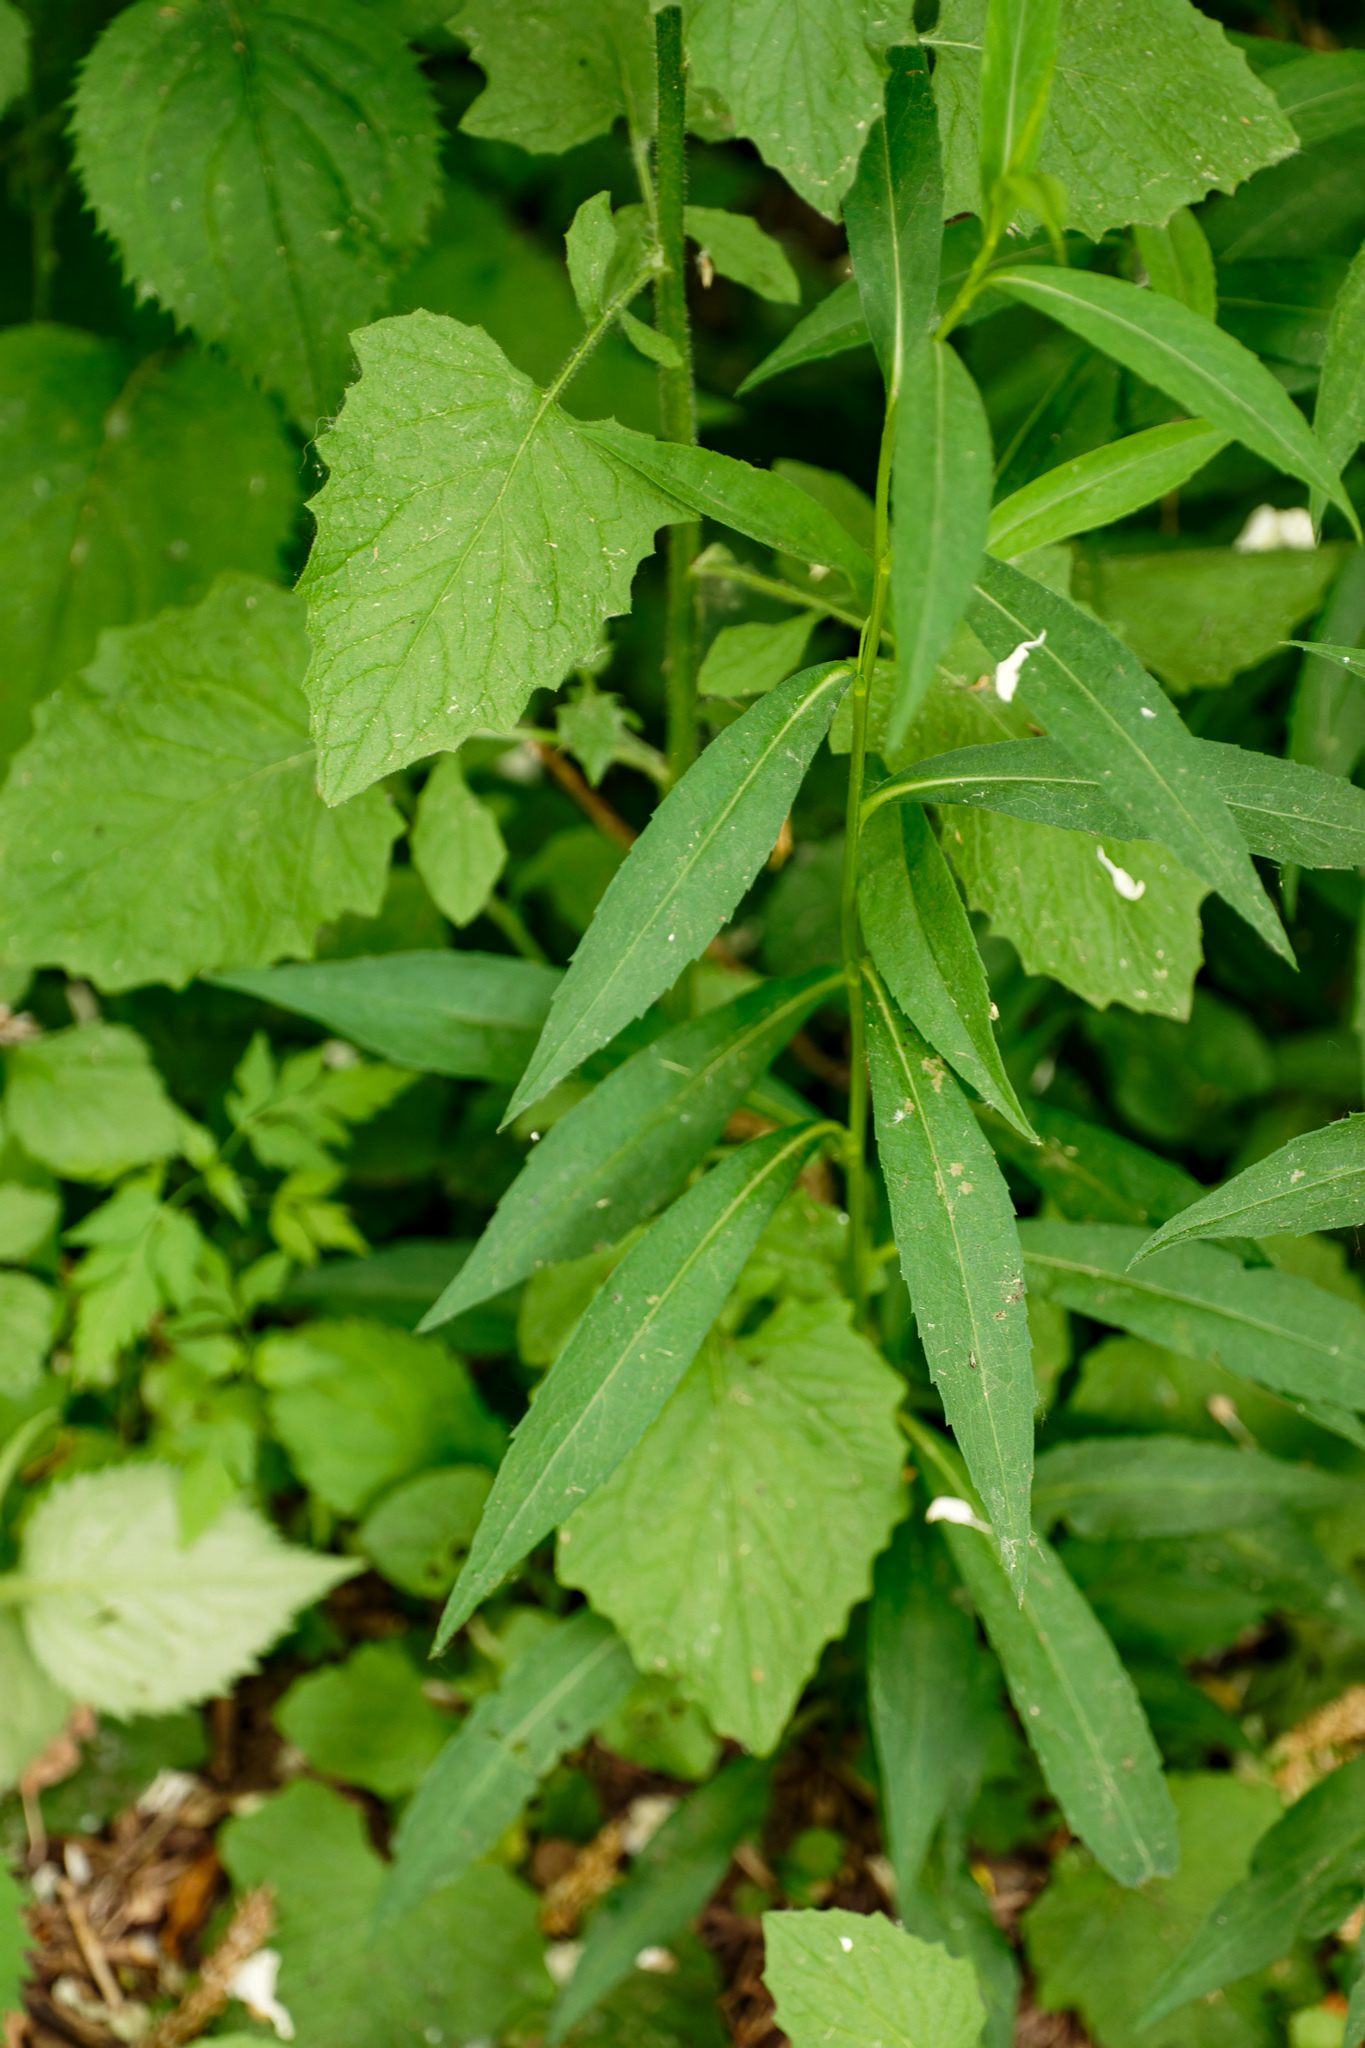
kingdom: Plantae
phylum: Tracheophyta
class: Magnoliopsida
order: Asterales
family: Asteraceae
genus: Lapsana
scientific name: Lapsana communis
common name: Nipplewort
